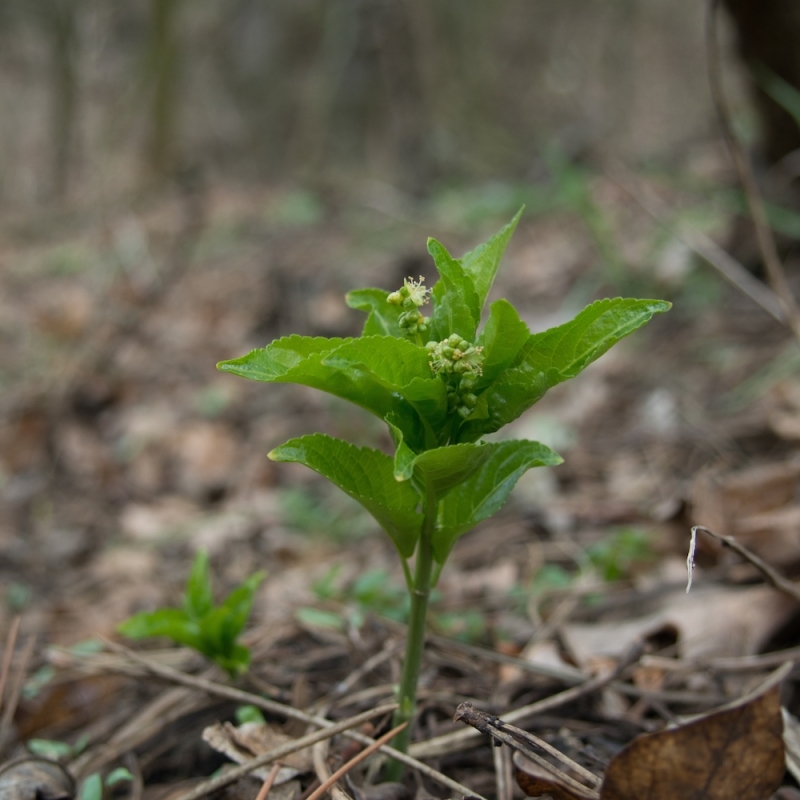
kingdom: Plantae
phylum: Tracheophyta
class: Magnoliopsida
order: Malpighiales
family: Euphorbiaceae
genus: Mercurialis
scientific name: Mercurialis perennis
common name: Dog mercury
